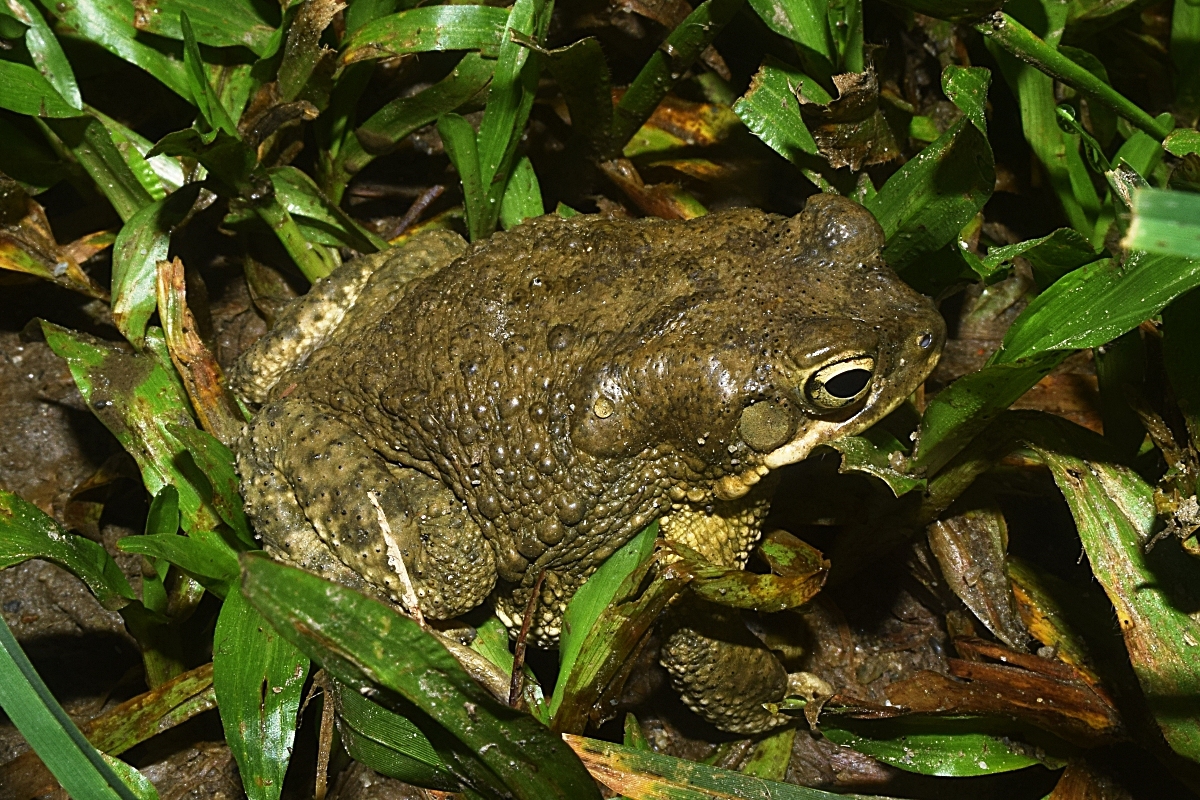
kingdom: Animalia
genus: Firouzophrynus
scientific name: Firouzophrynus
